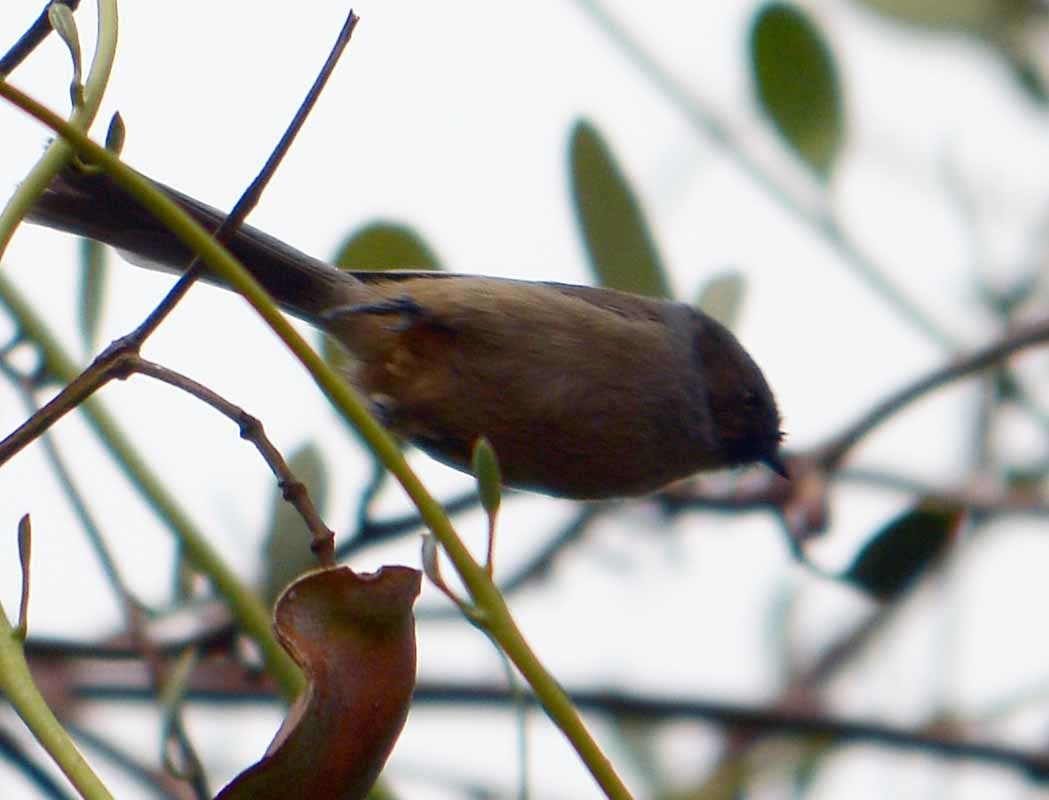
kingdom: Animalia
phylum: Chordata
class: Aves
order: Passeriformes
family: Aegithalidae
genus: Psaltriparus
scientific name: Psaltriparus minimus
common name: American bushtit
